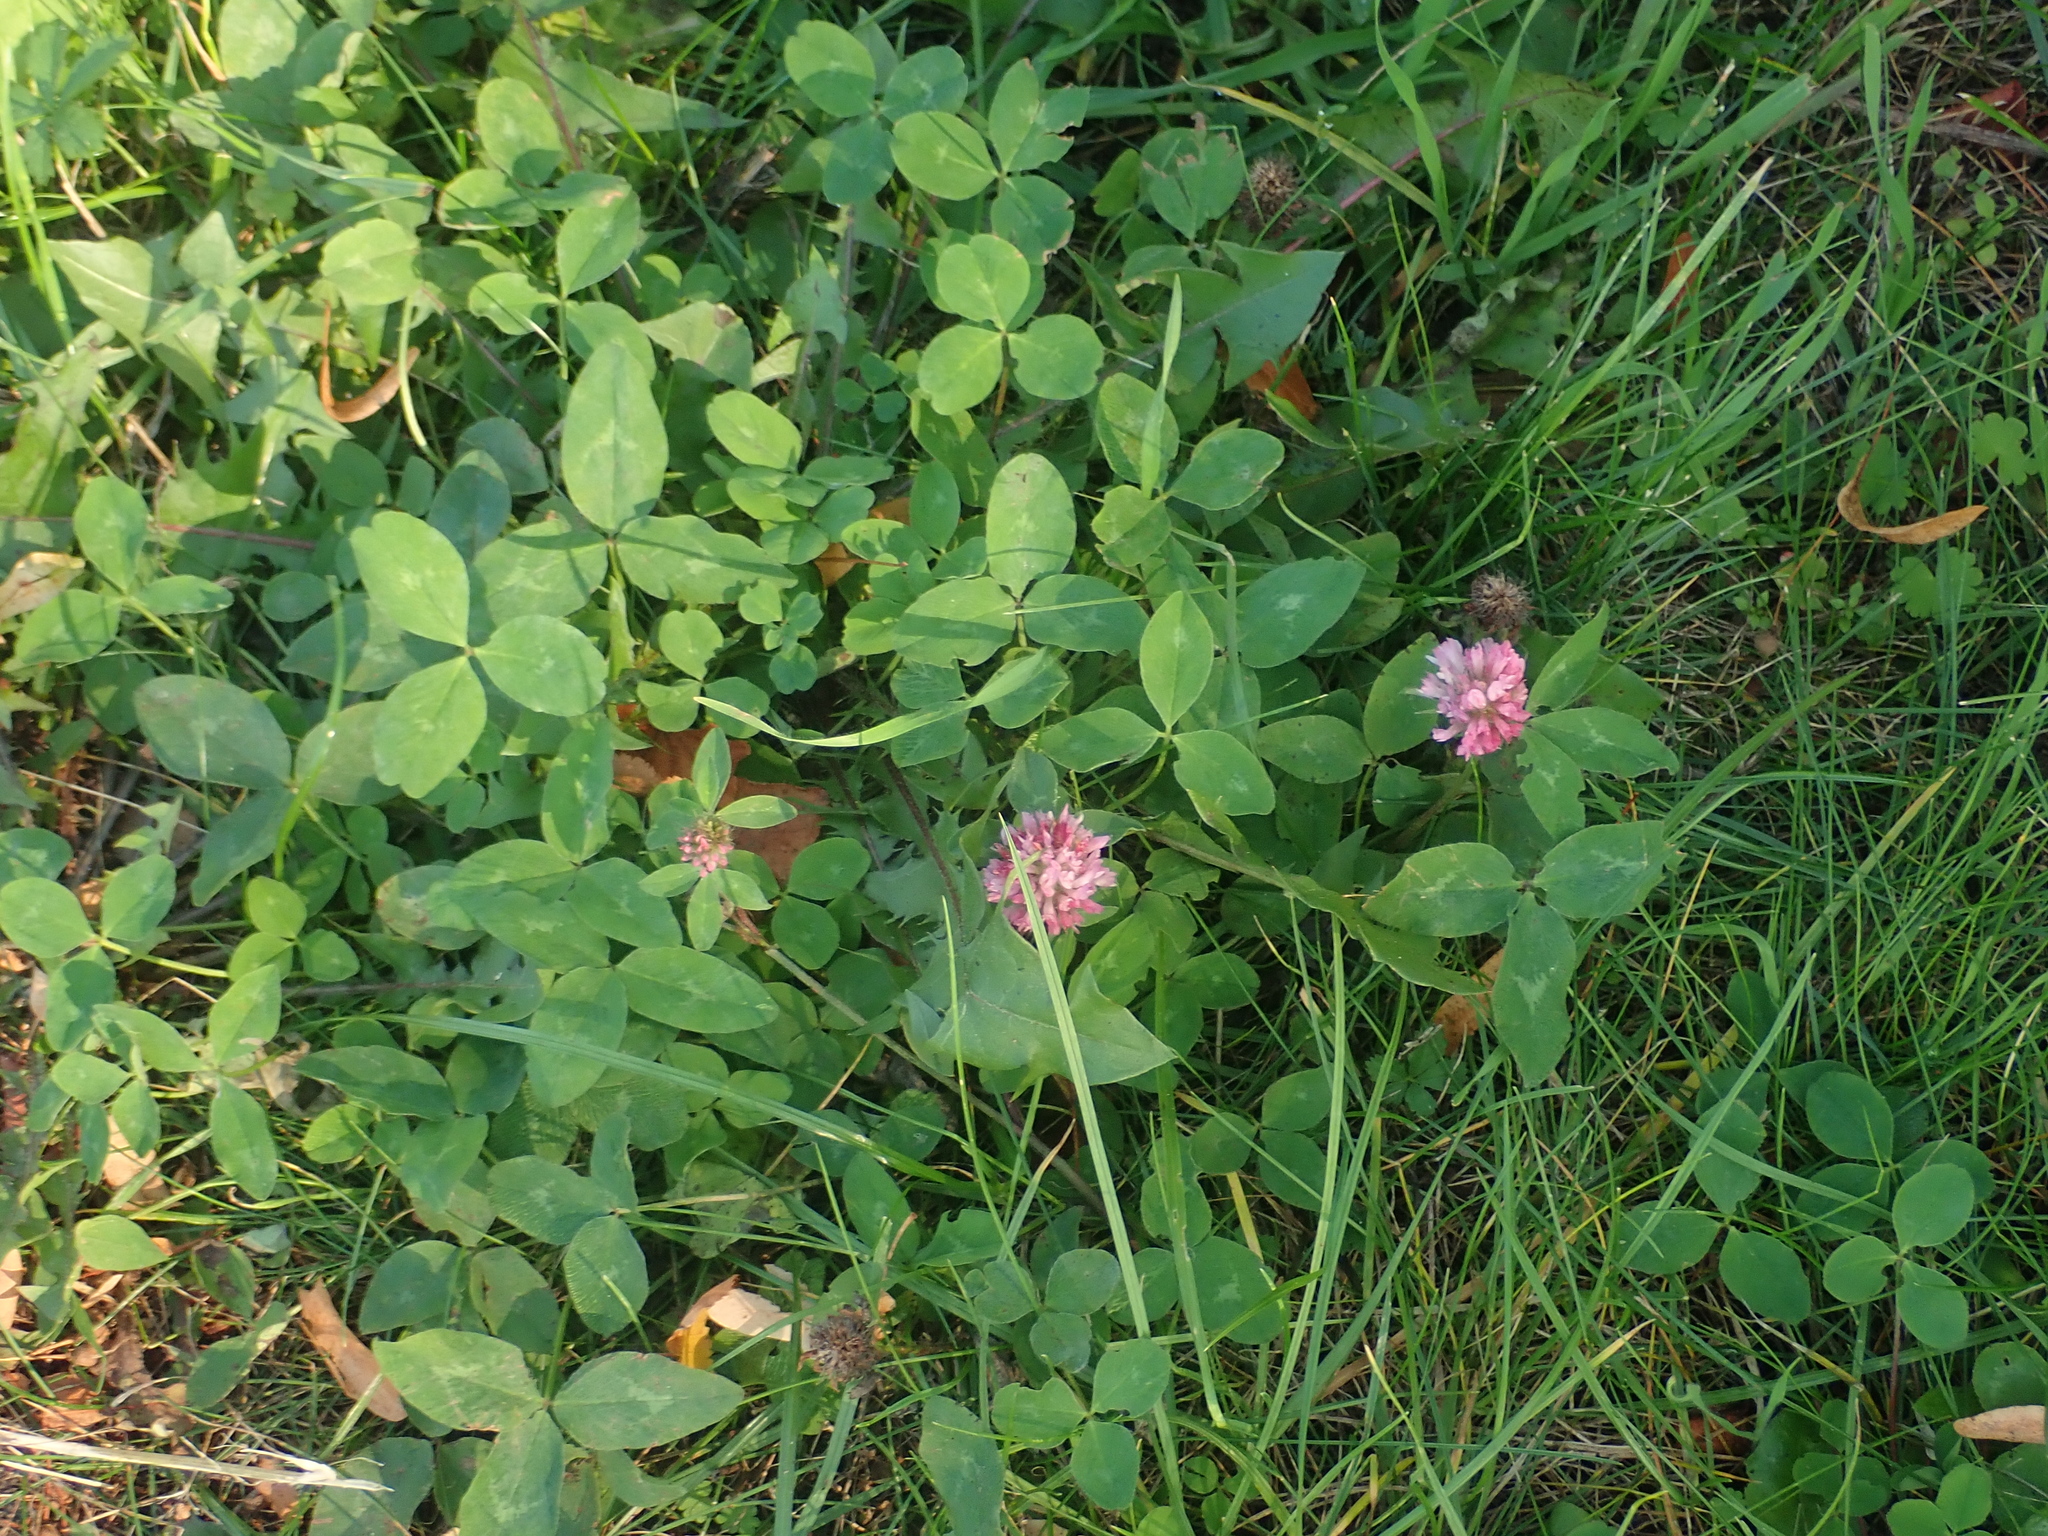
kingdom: Plantae
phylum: Tracheophyta
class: Magnoliopsida
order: Fabales
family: Fabaceae
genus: Trifolium
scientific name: Trifolium pratense
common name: Red clover
